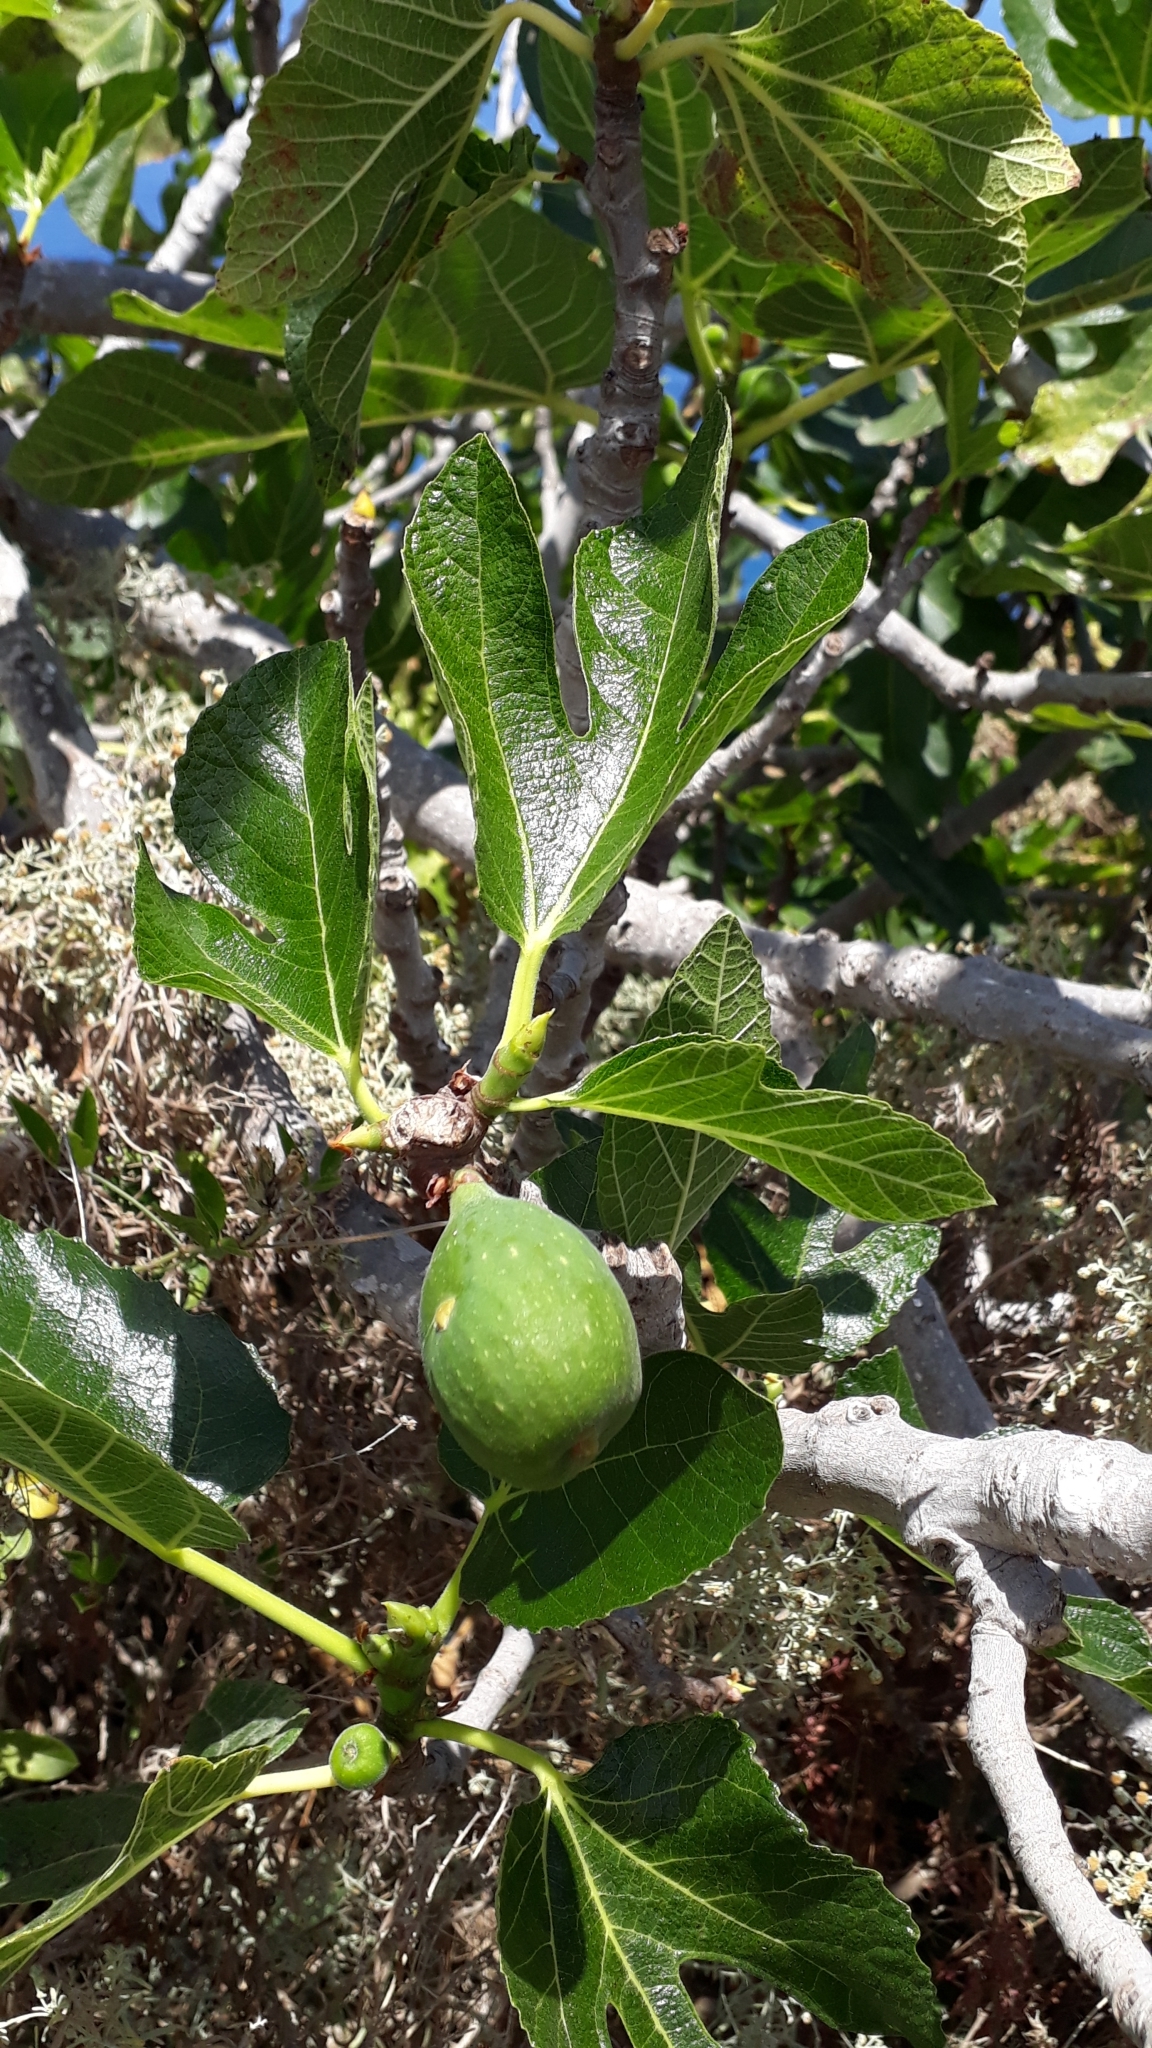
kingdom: Plantae
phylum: Tracheophyta
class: Magnoliopsida
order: Rosales
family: Moraceae
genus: Ficus
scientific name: Ficus carica
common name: Fig
